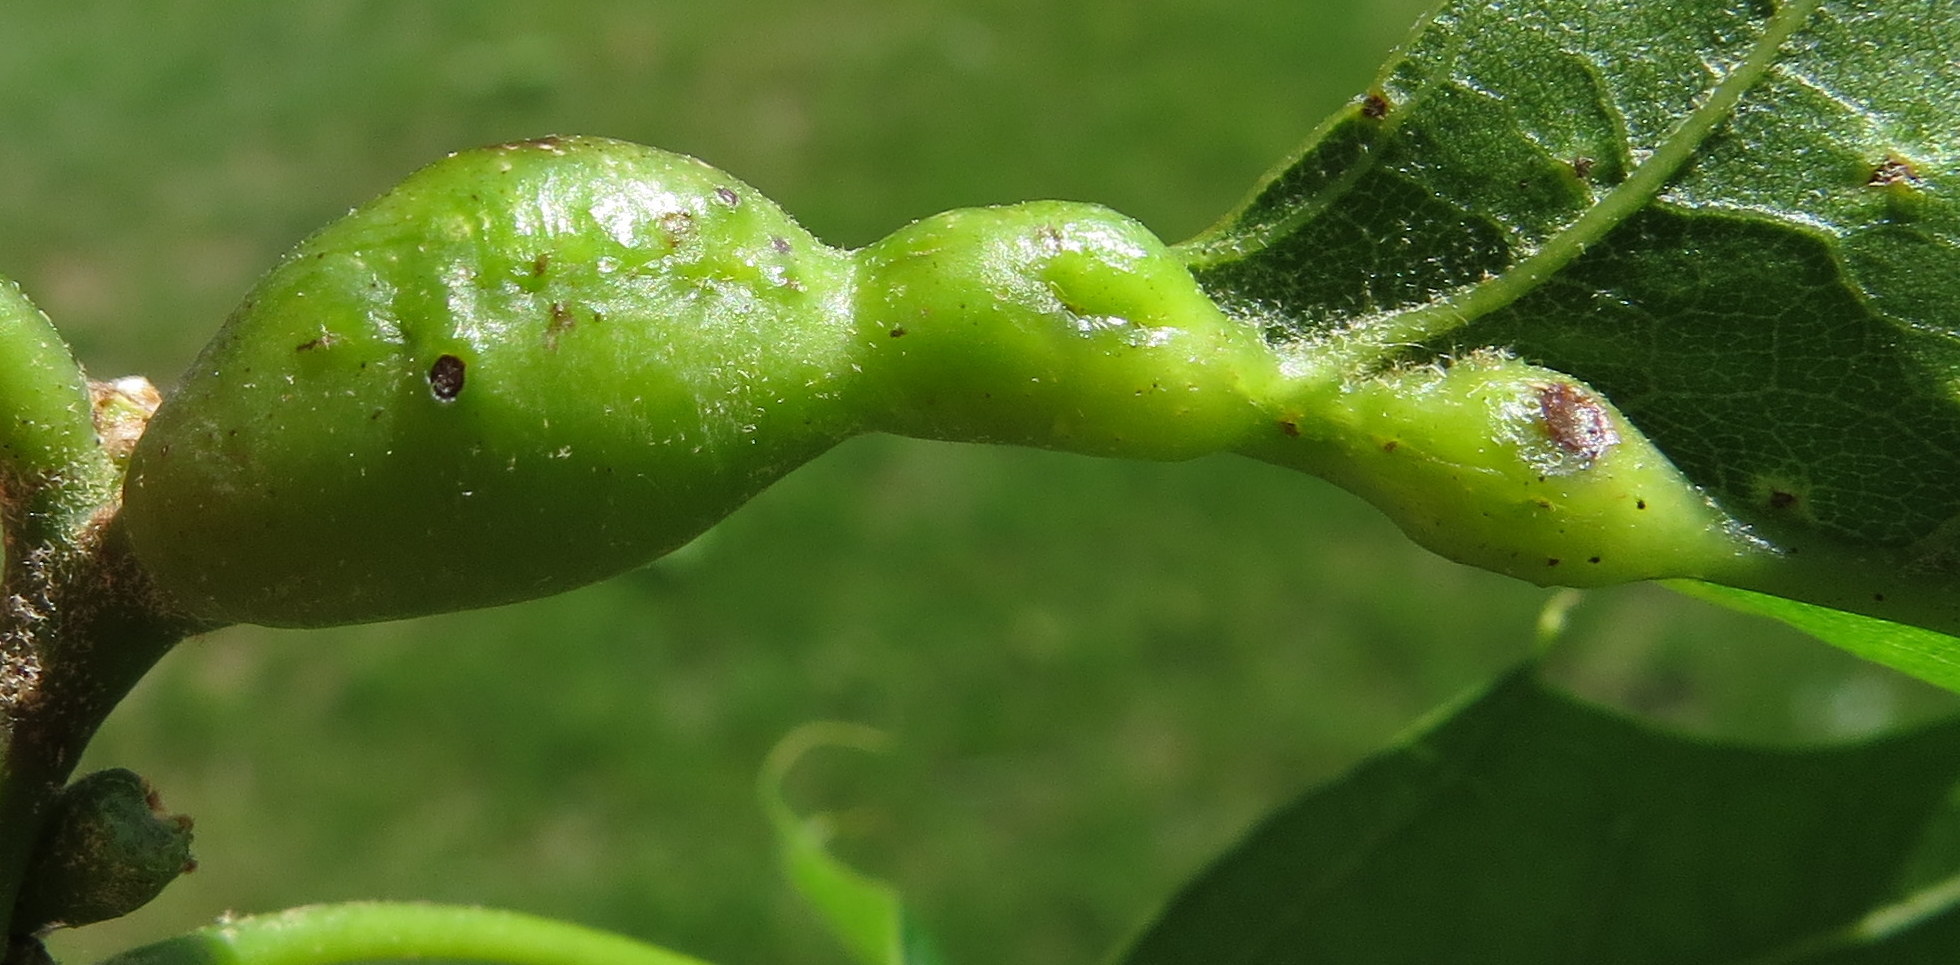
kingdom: Animalia
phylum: Arthropoda
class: Insecta
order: Hymenoptera
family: Cynipidae
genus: Melikaiella
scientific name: Melikaiella tumifica
